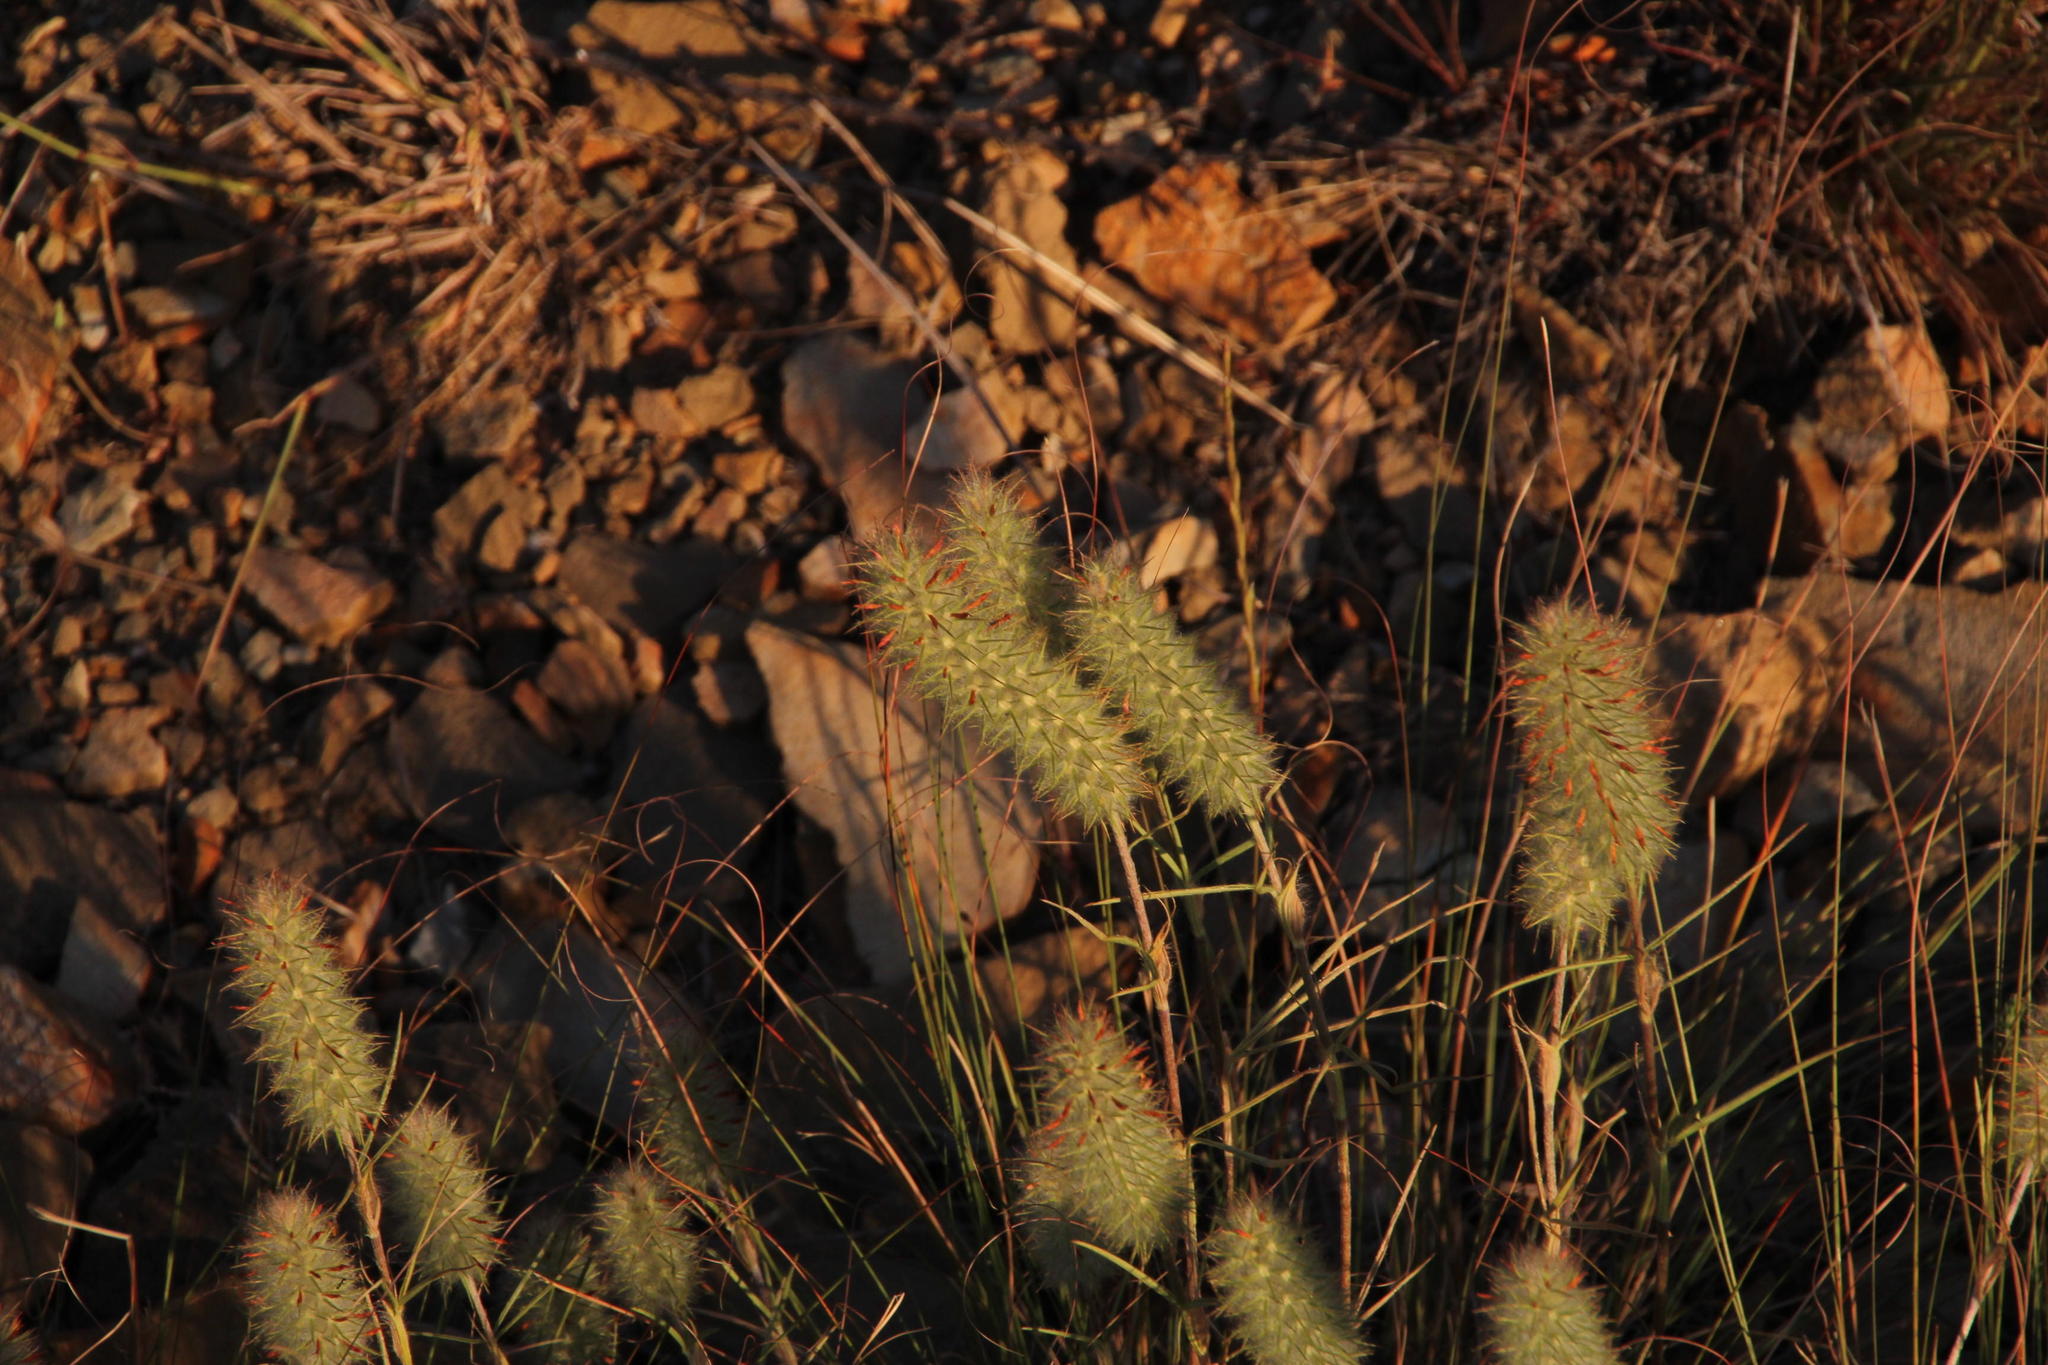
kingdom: Plantae
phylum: Tracheophyta
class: Magnoliopsida
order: Fabales
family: Fabaceae
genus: Trifolium
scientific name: Trifolium angustifolium
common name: Narrow clover
